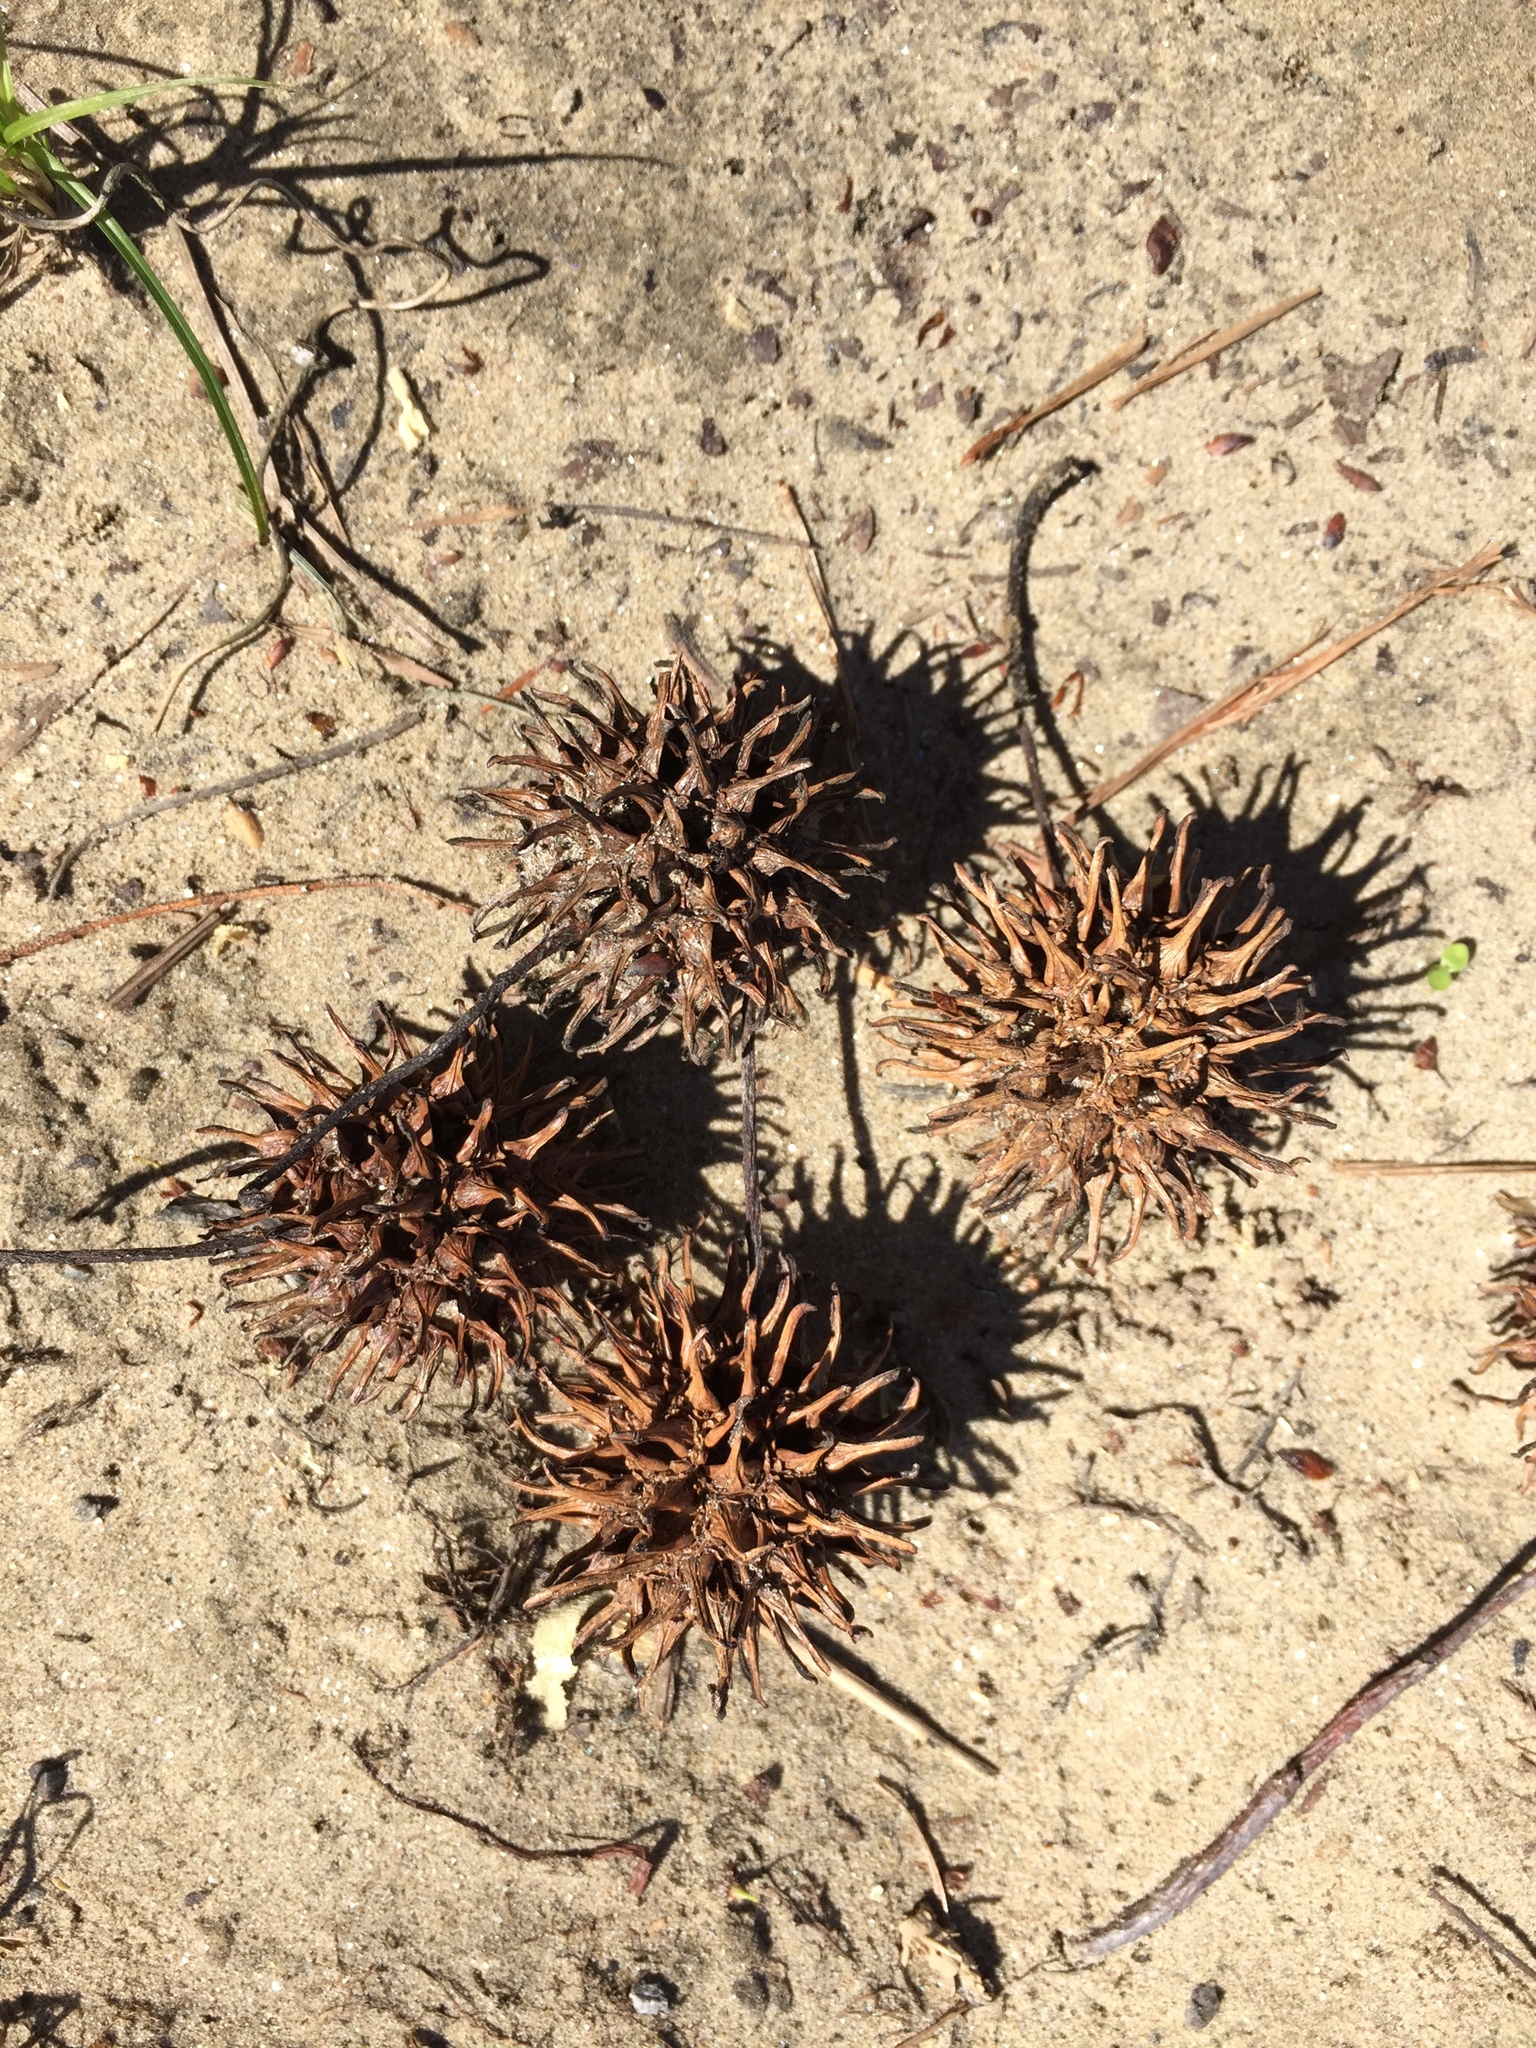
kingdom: Plantae
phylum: Tracheophyta
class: Magnoliopsida
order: Saxifragales
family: Altingiaceae
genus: Liquidambar
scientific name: Liquidambar styraciflua
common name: Sweet gum
